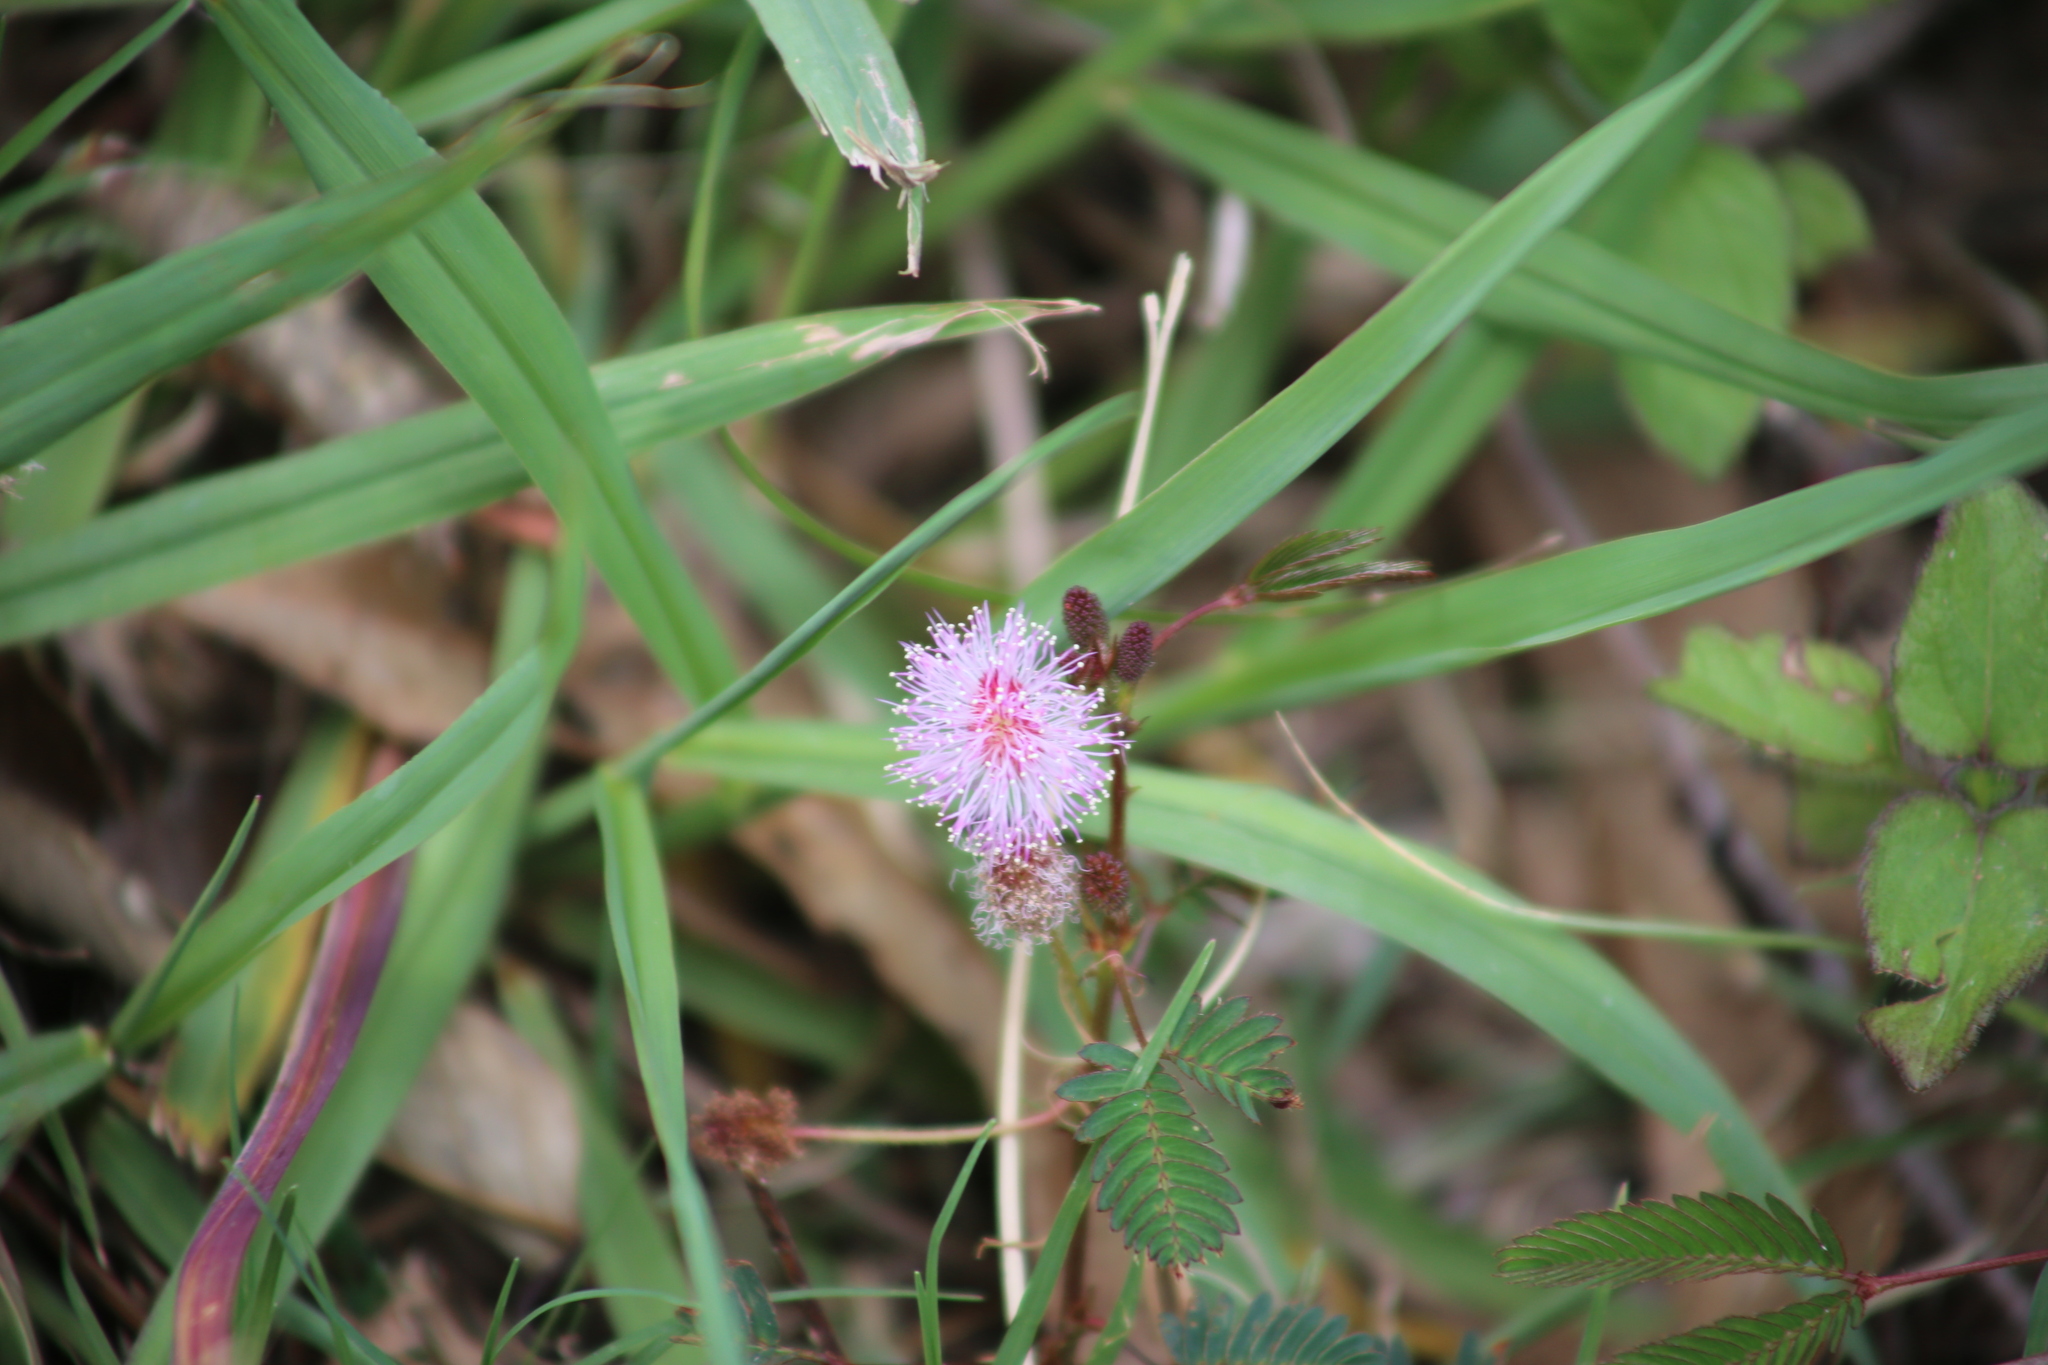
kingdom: Plantae
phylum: Tracheophyta
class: Magnoliopsida
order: Fabales
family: Fabaceae
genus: Mimosa
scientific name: Mimosa pudica
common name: Sensitive plant
